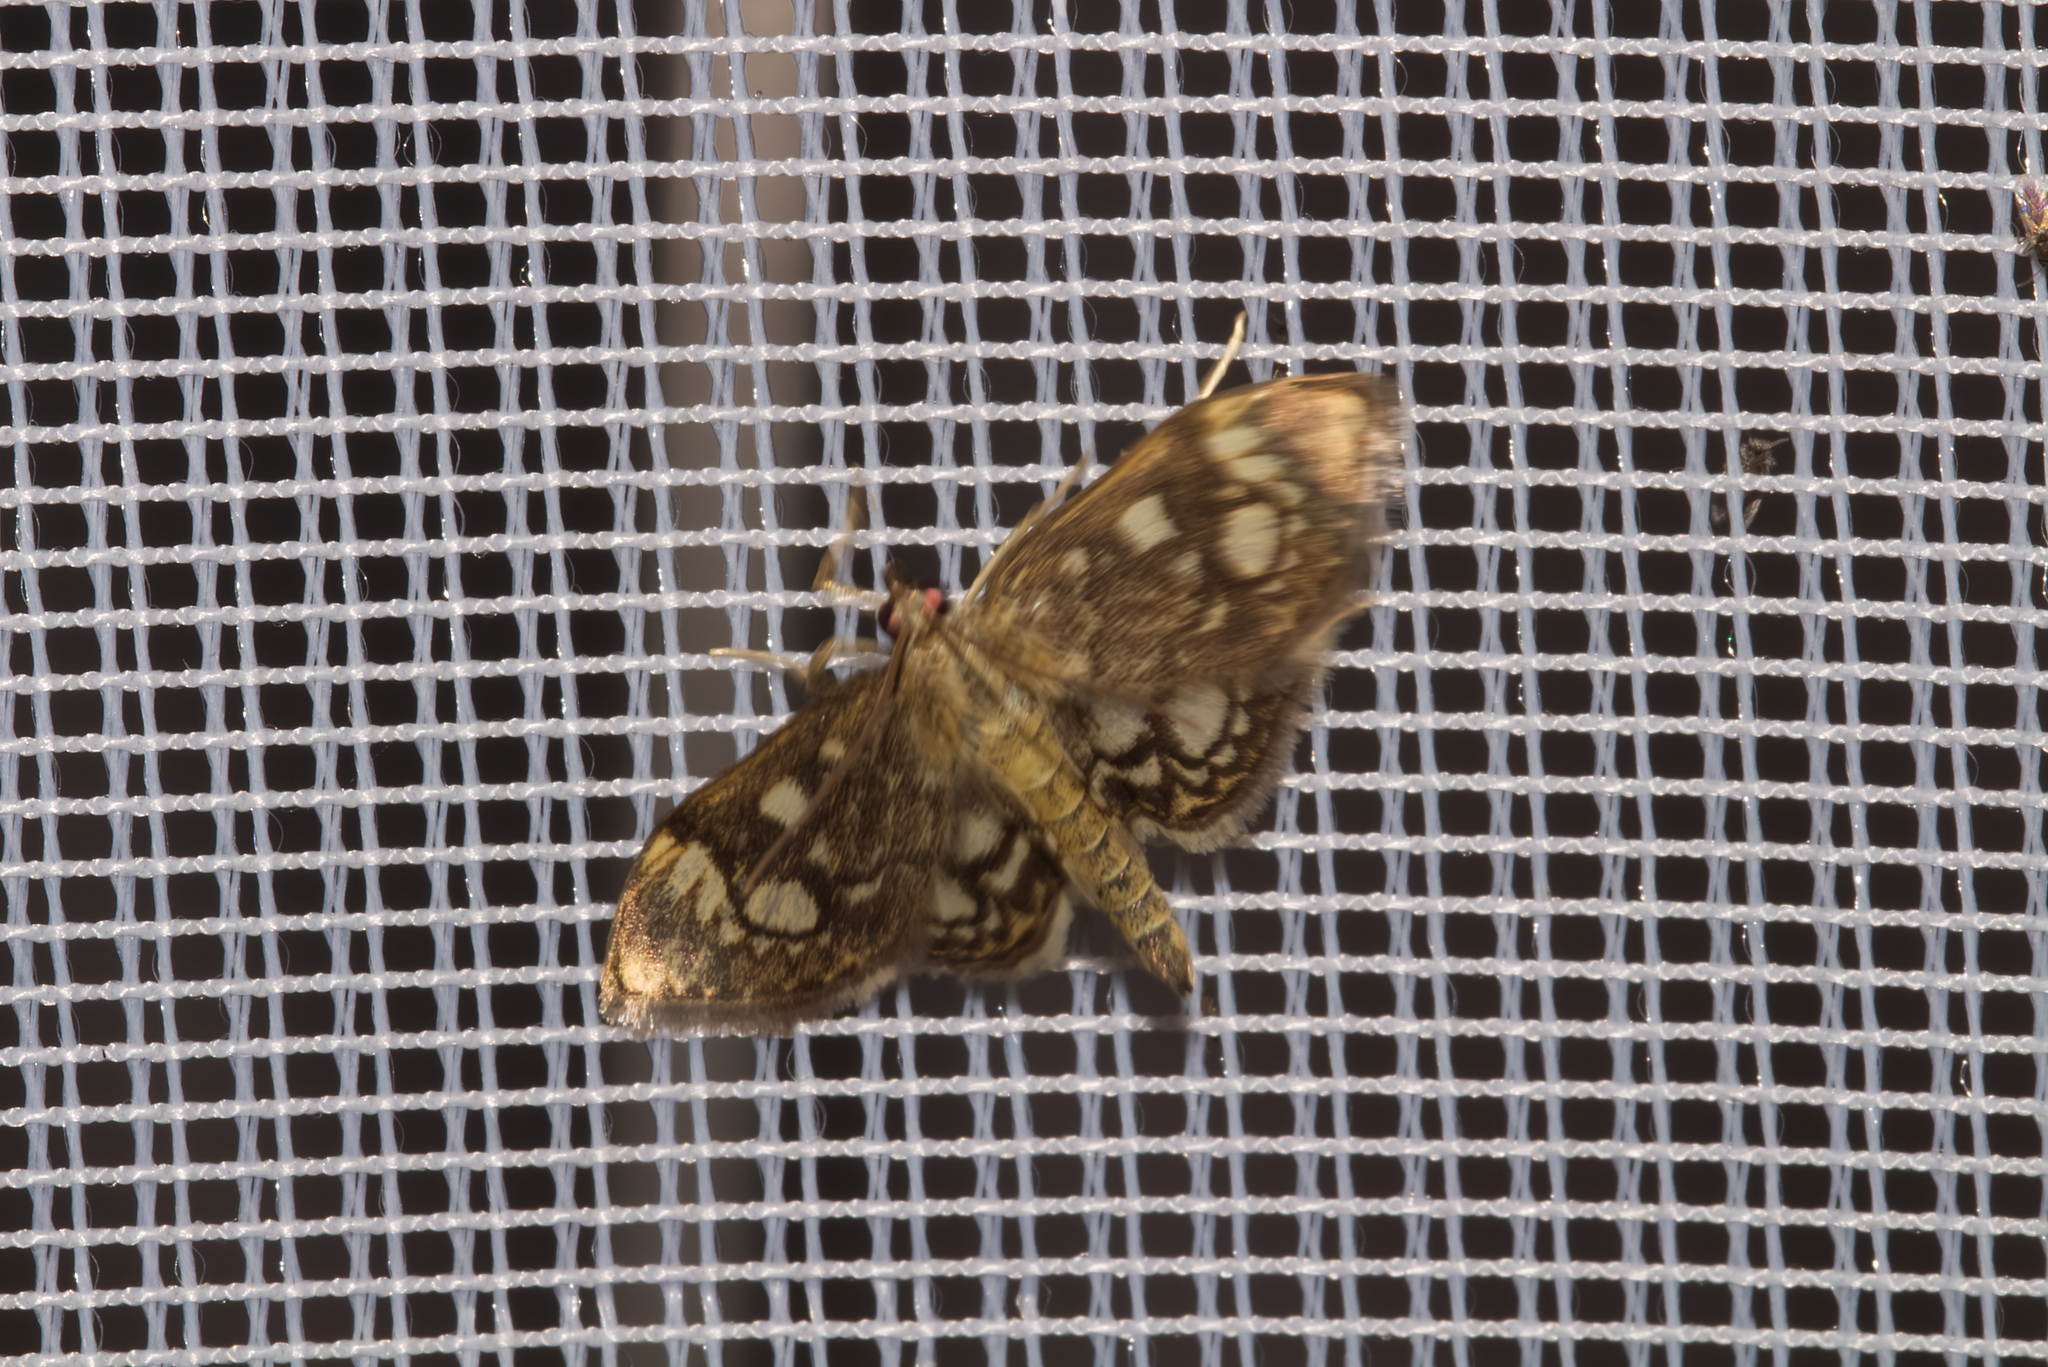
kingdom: Animalia
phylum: Arthropoda
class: Insecta
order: Lepidoptera
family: Crambidae
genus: Anania
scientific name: Anania coronata
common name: Elder pearl
